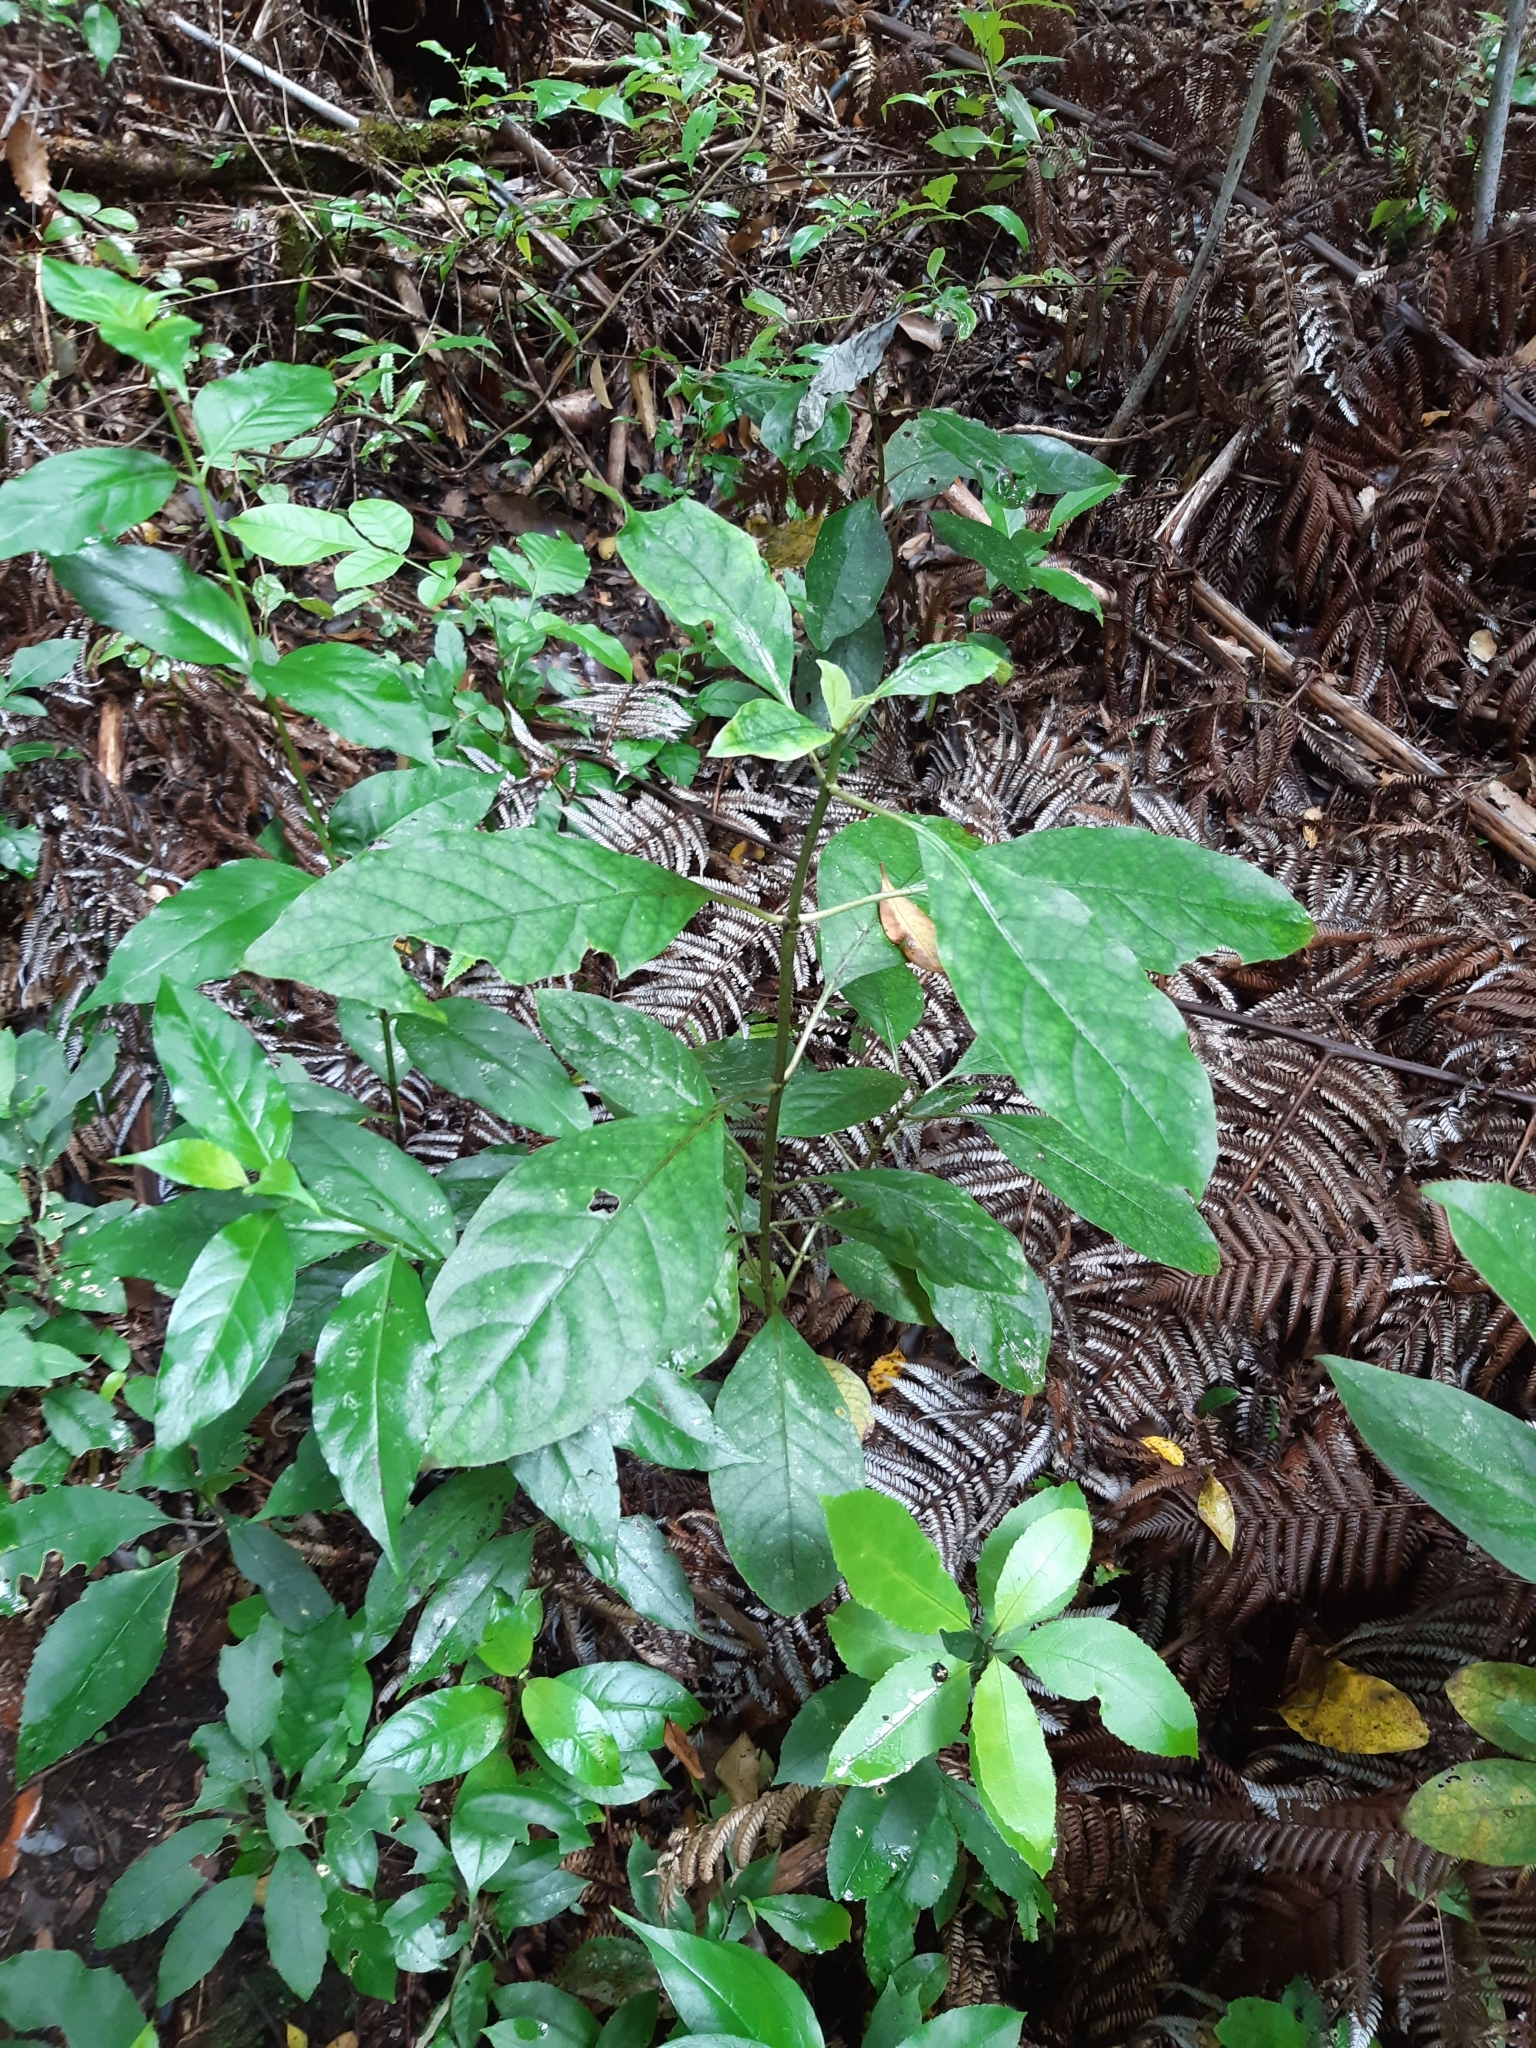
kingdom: Plantae
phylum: Tracheophyta
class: Magnoliopsida
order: Gentianales
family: Rubiaceae
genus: Coprosma
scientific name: Coprosma autumnalis
